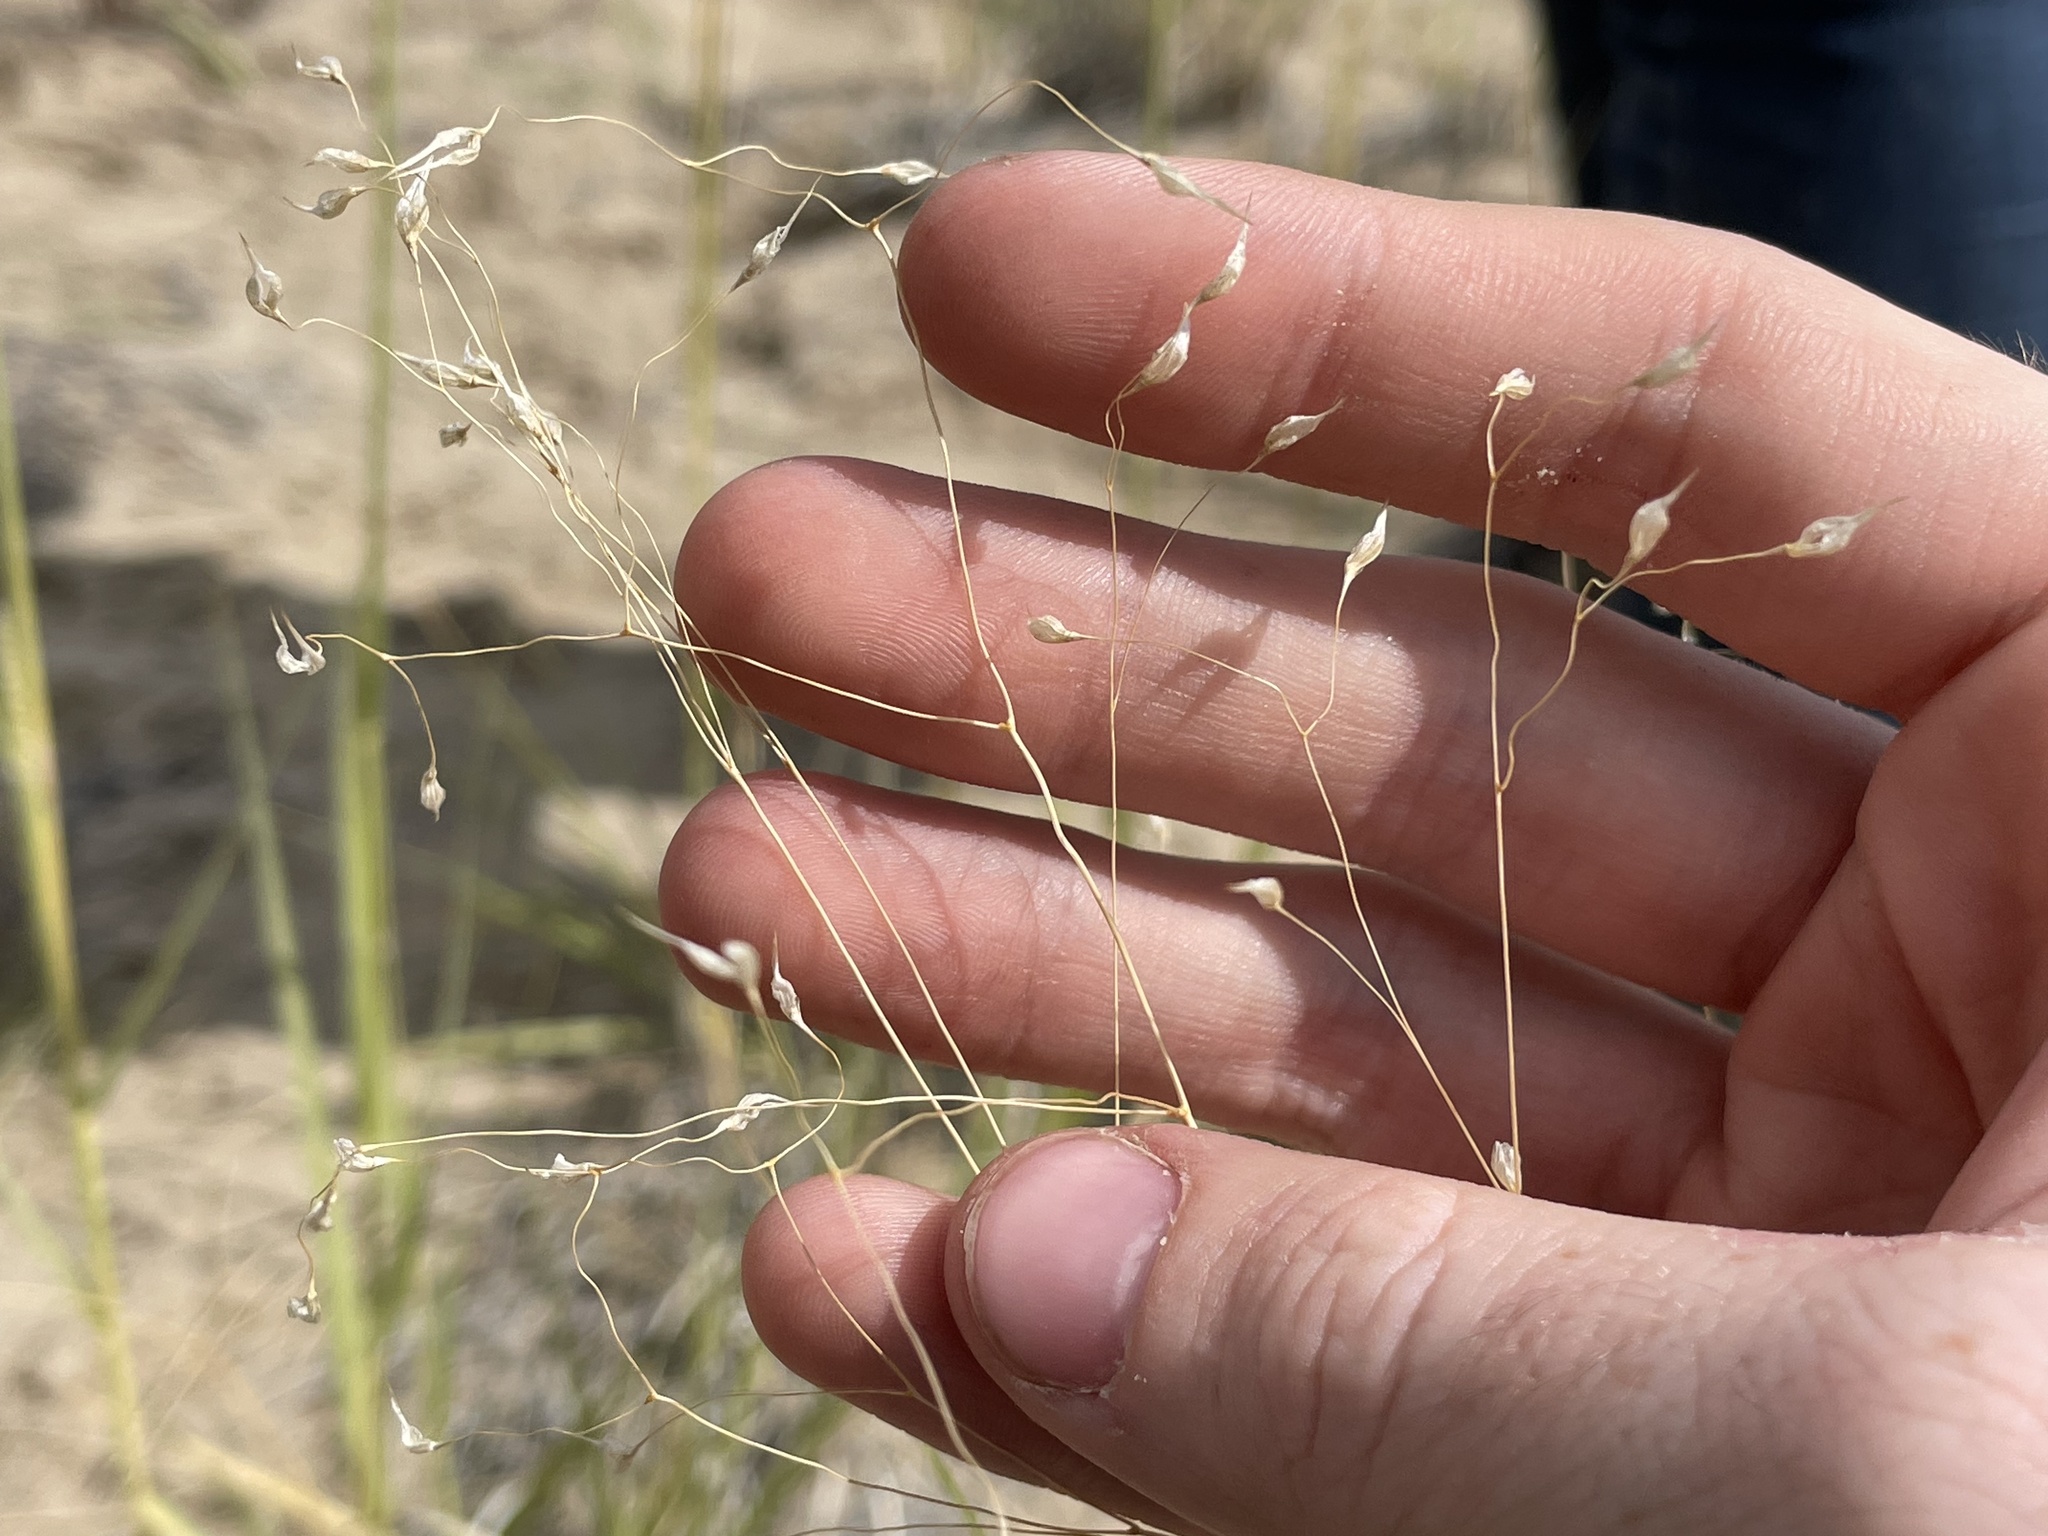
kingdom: Plantae
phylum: Tracheophyta
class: Liliopsida
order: Poales
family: Poaceae
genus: Eriocoma
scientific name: Eriocoma hymenoides
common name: Indian mountain ricegrass
